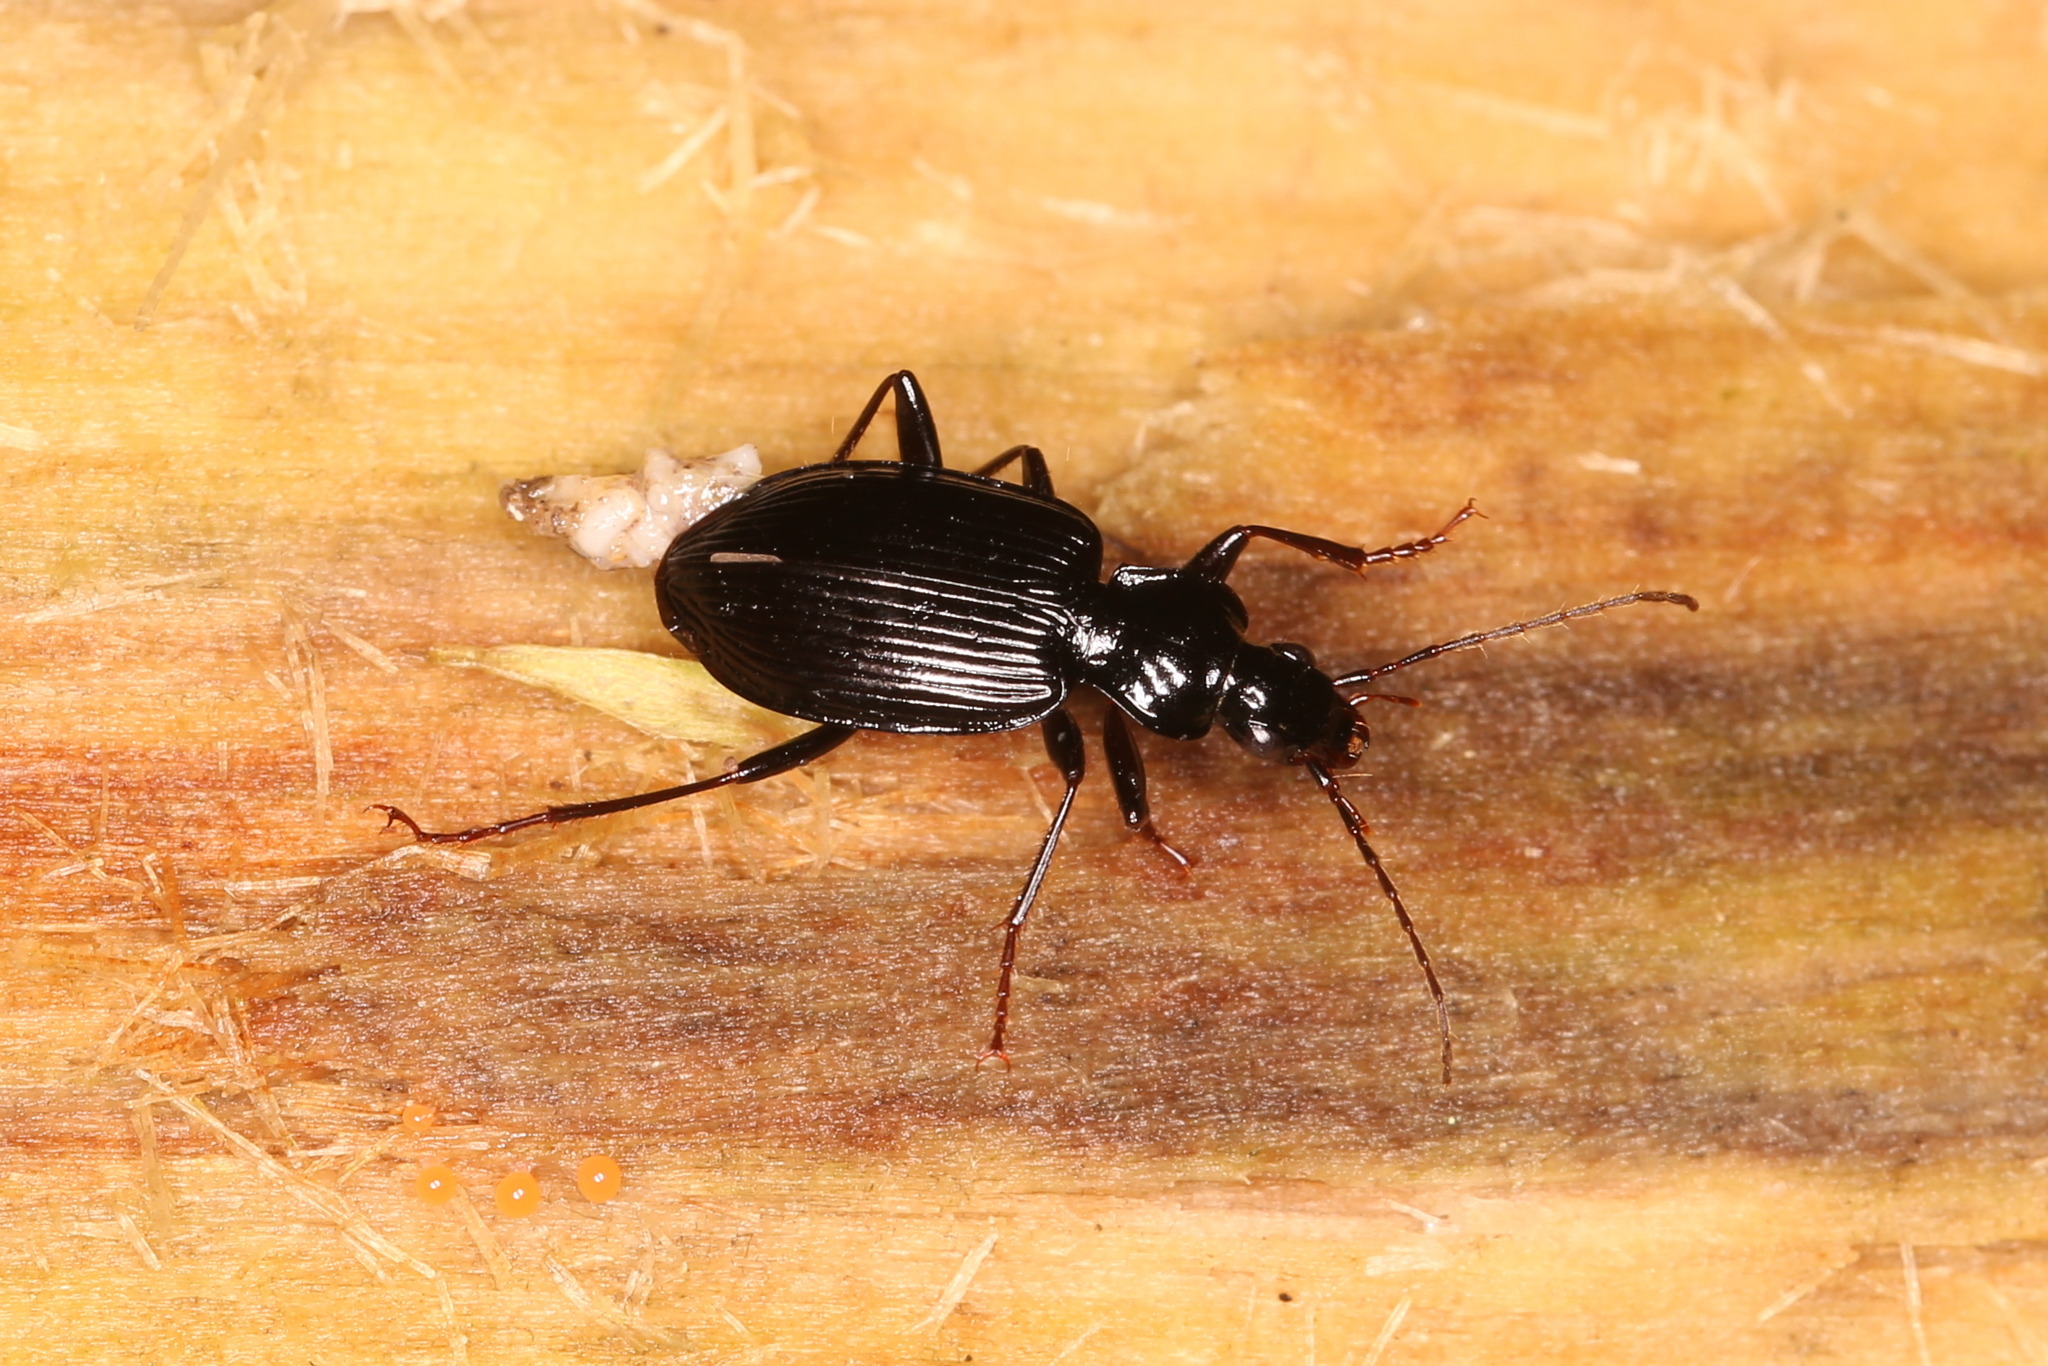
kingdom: Animalia
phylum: Arthropoda
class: Insecta
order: Coleoptera
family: Carabidae
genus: Platynus
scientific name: Platynus assimilis
